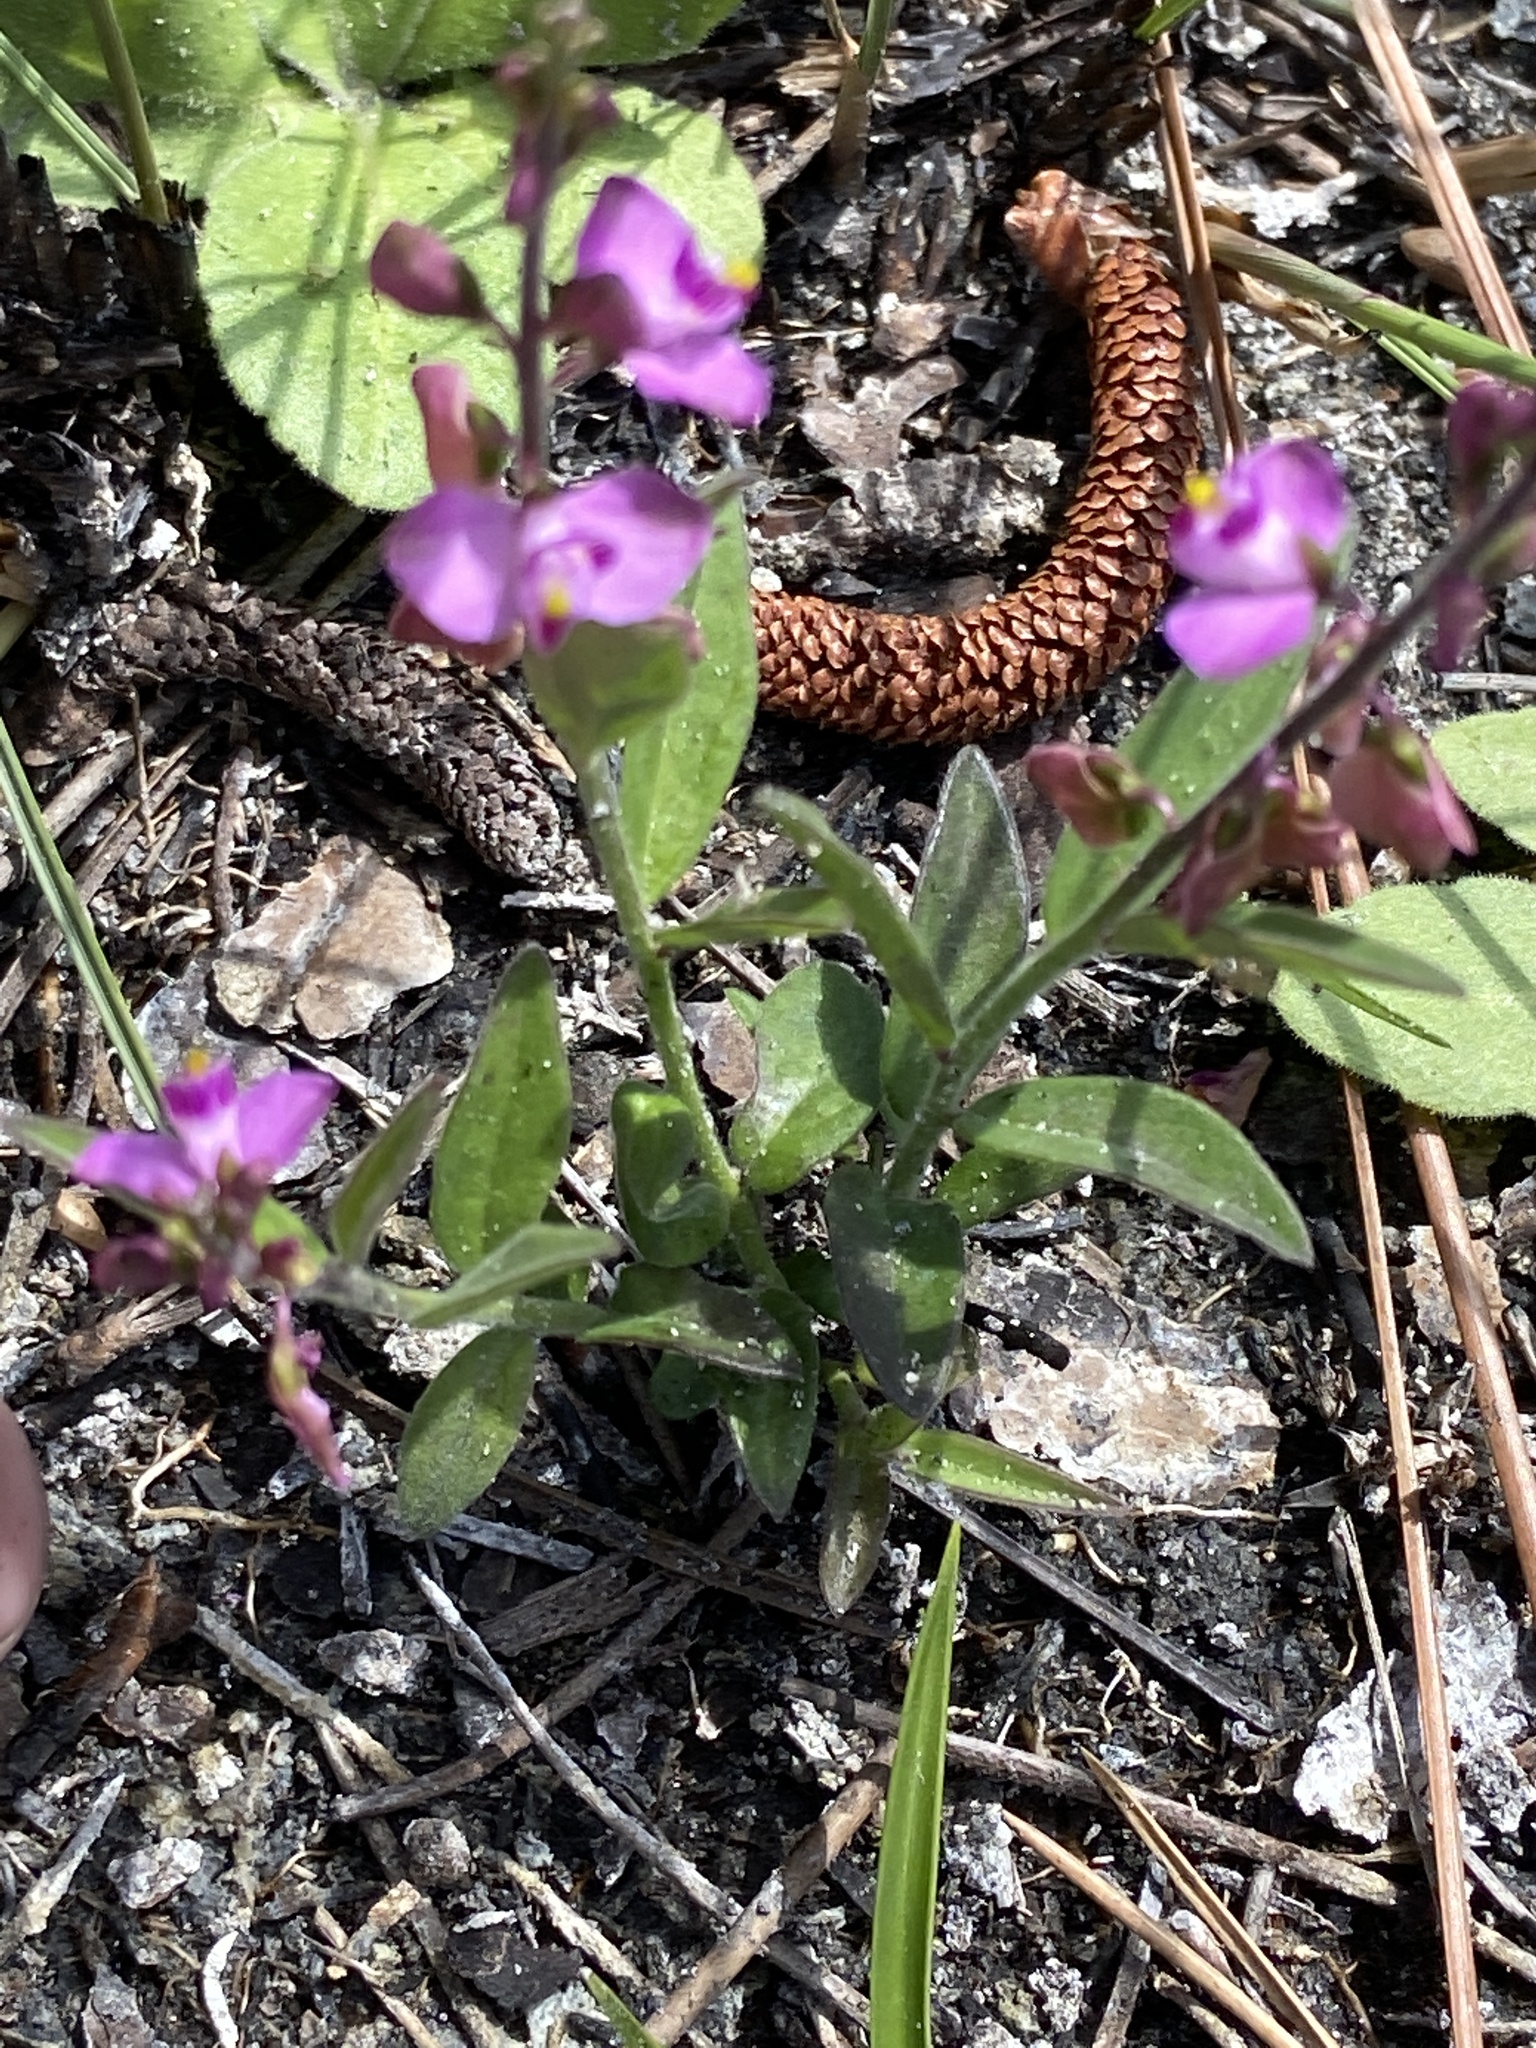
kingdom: Plantae
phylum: Tracheophyta
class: Magnoliopsida
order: Fabales
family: Polygalaceae
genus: Asemeia
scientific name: Asemeia grandiflora
